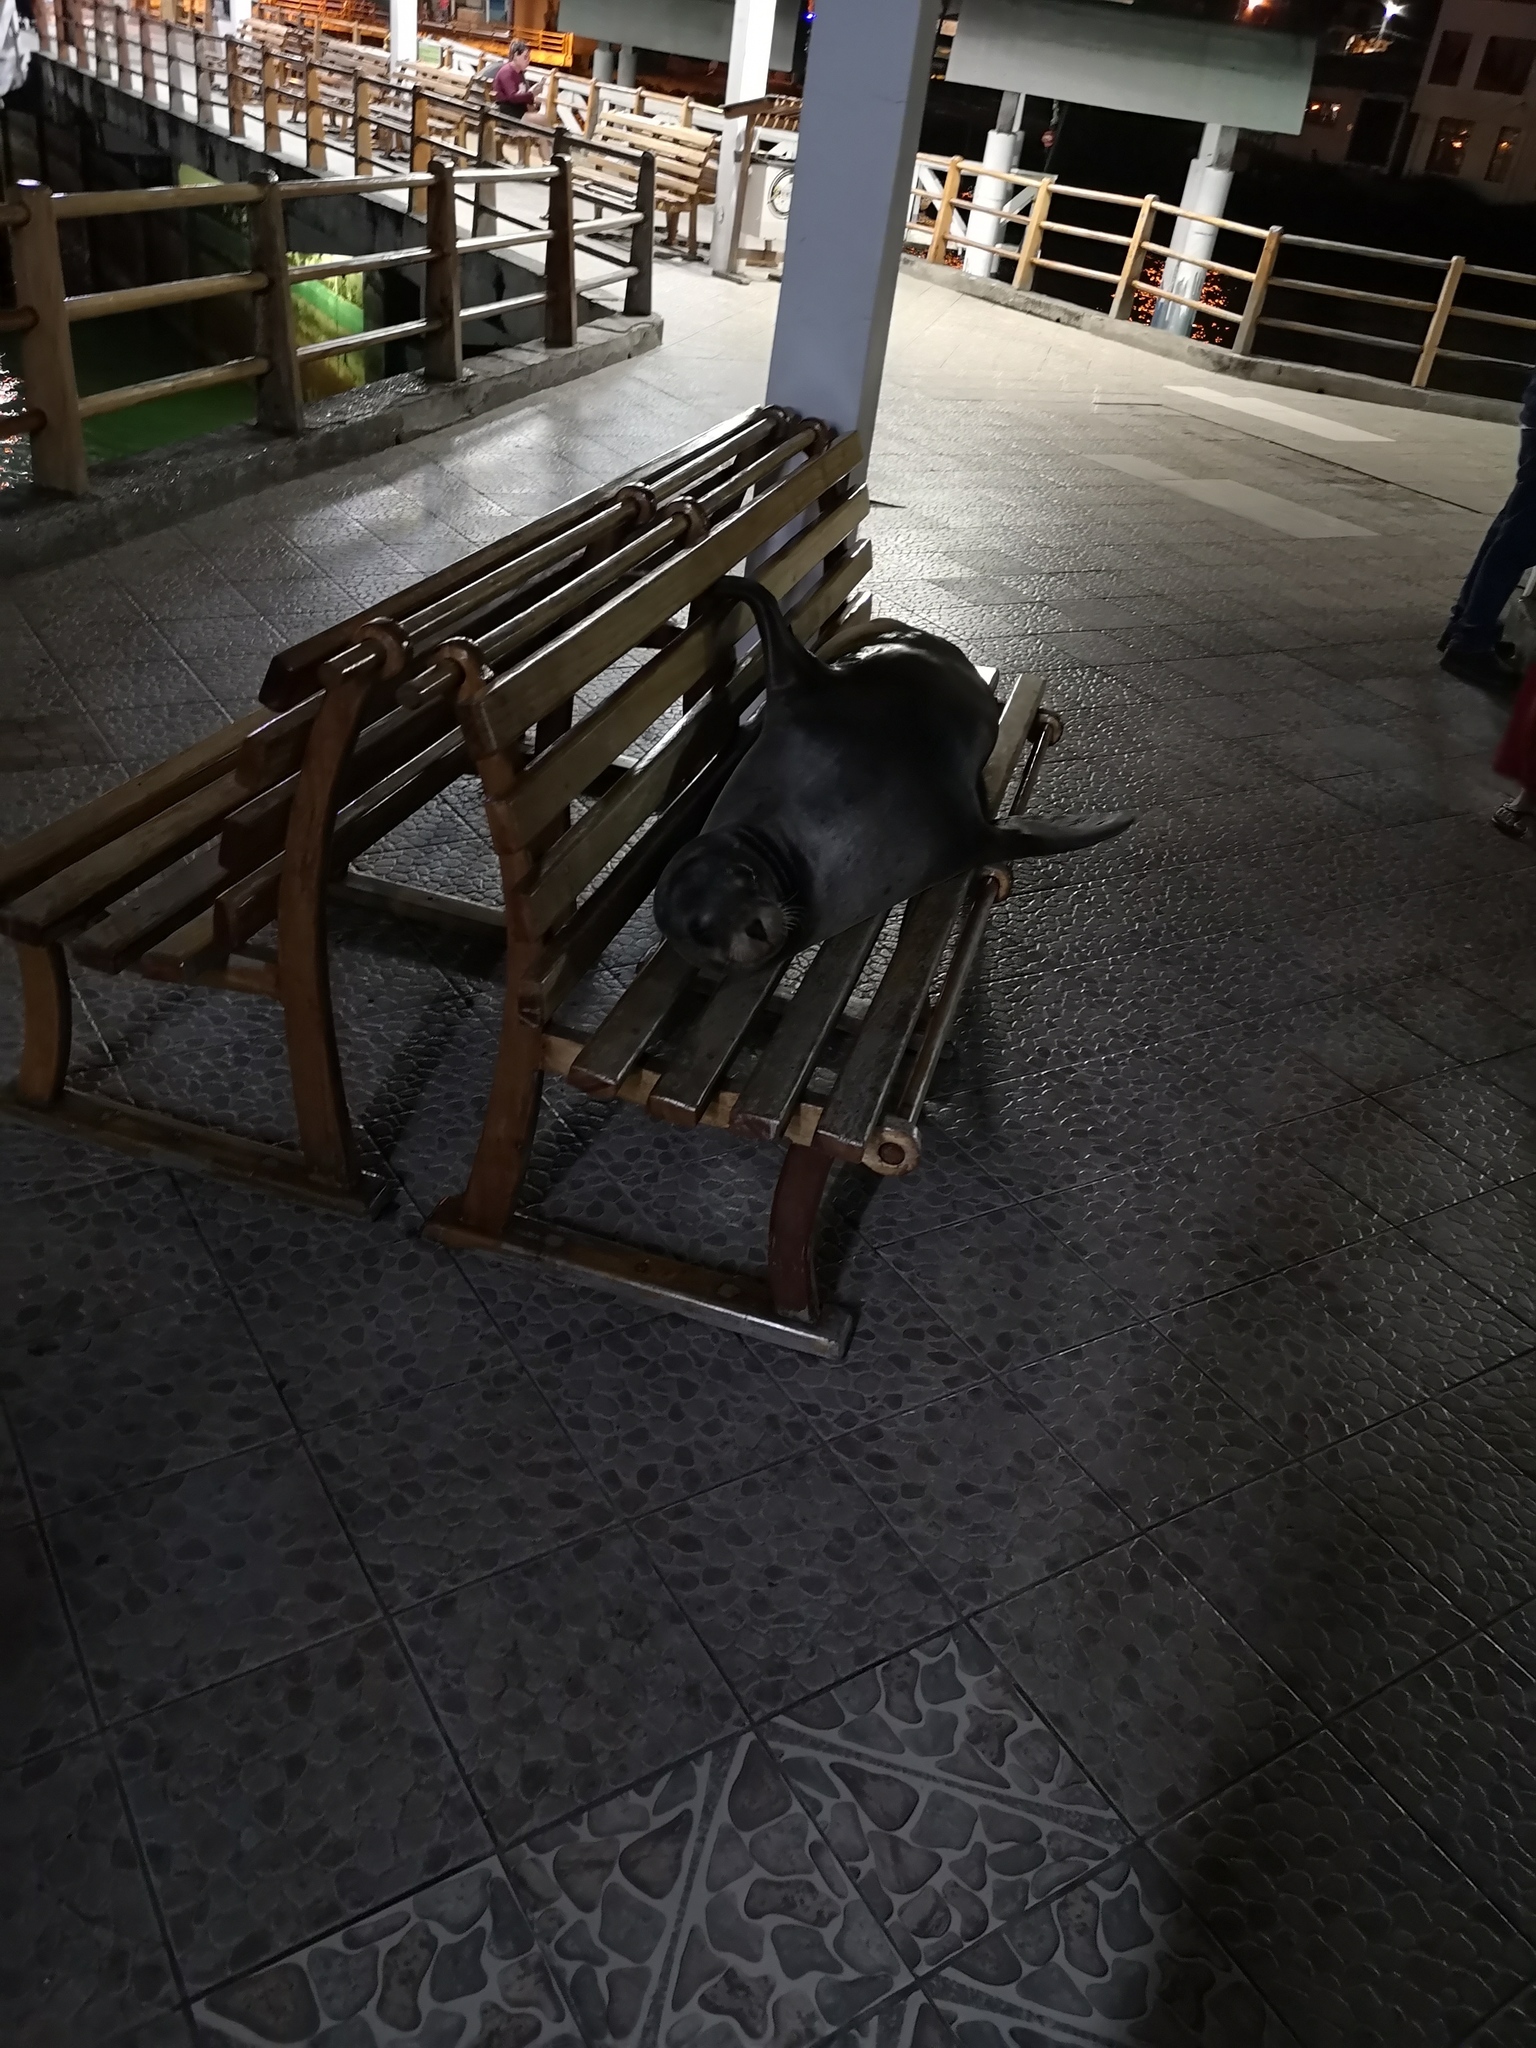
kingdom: Animalia
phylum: Chordata
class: Mammalia
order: Carnivora
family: Otariidae
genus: Zalophus
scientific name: Zalophus wollebaeki
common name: Galapagos sea lion
